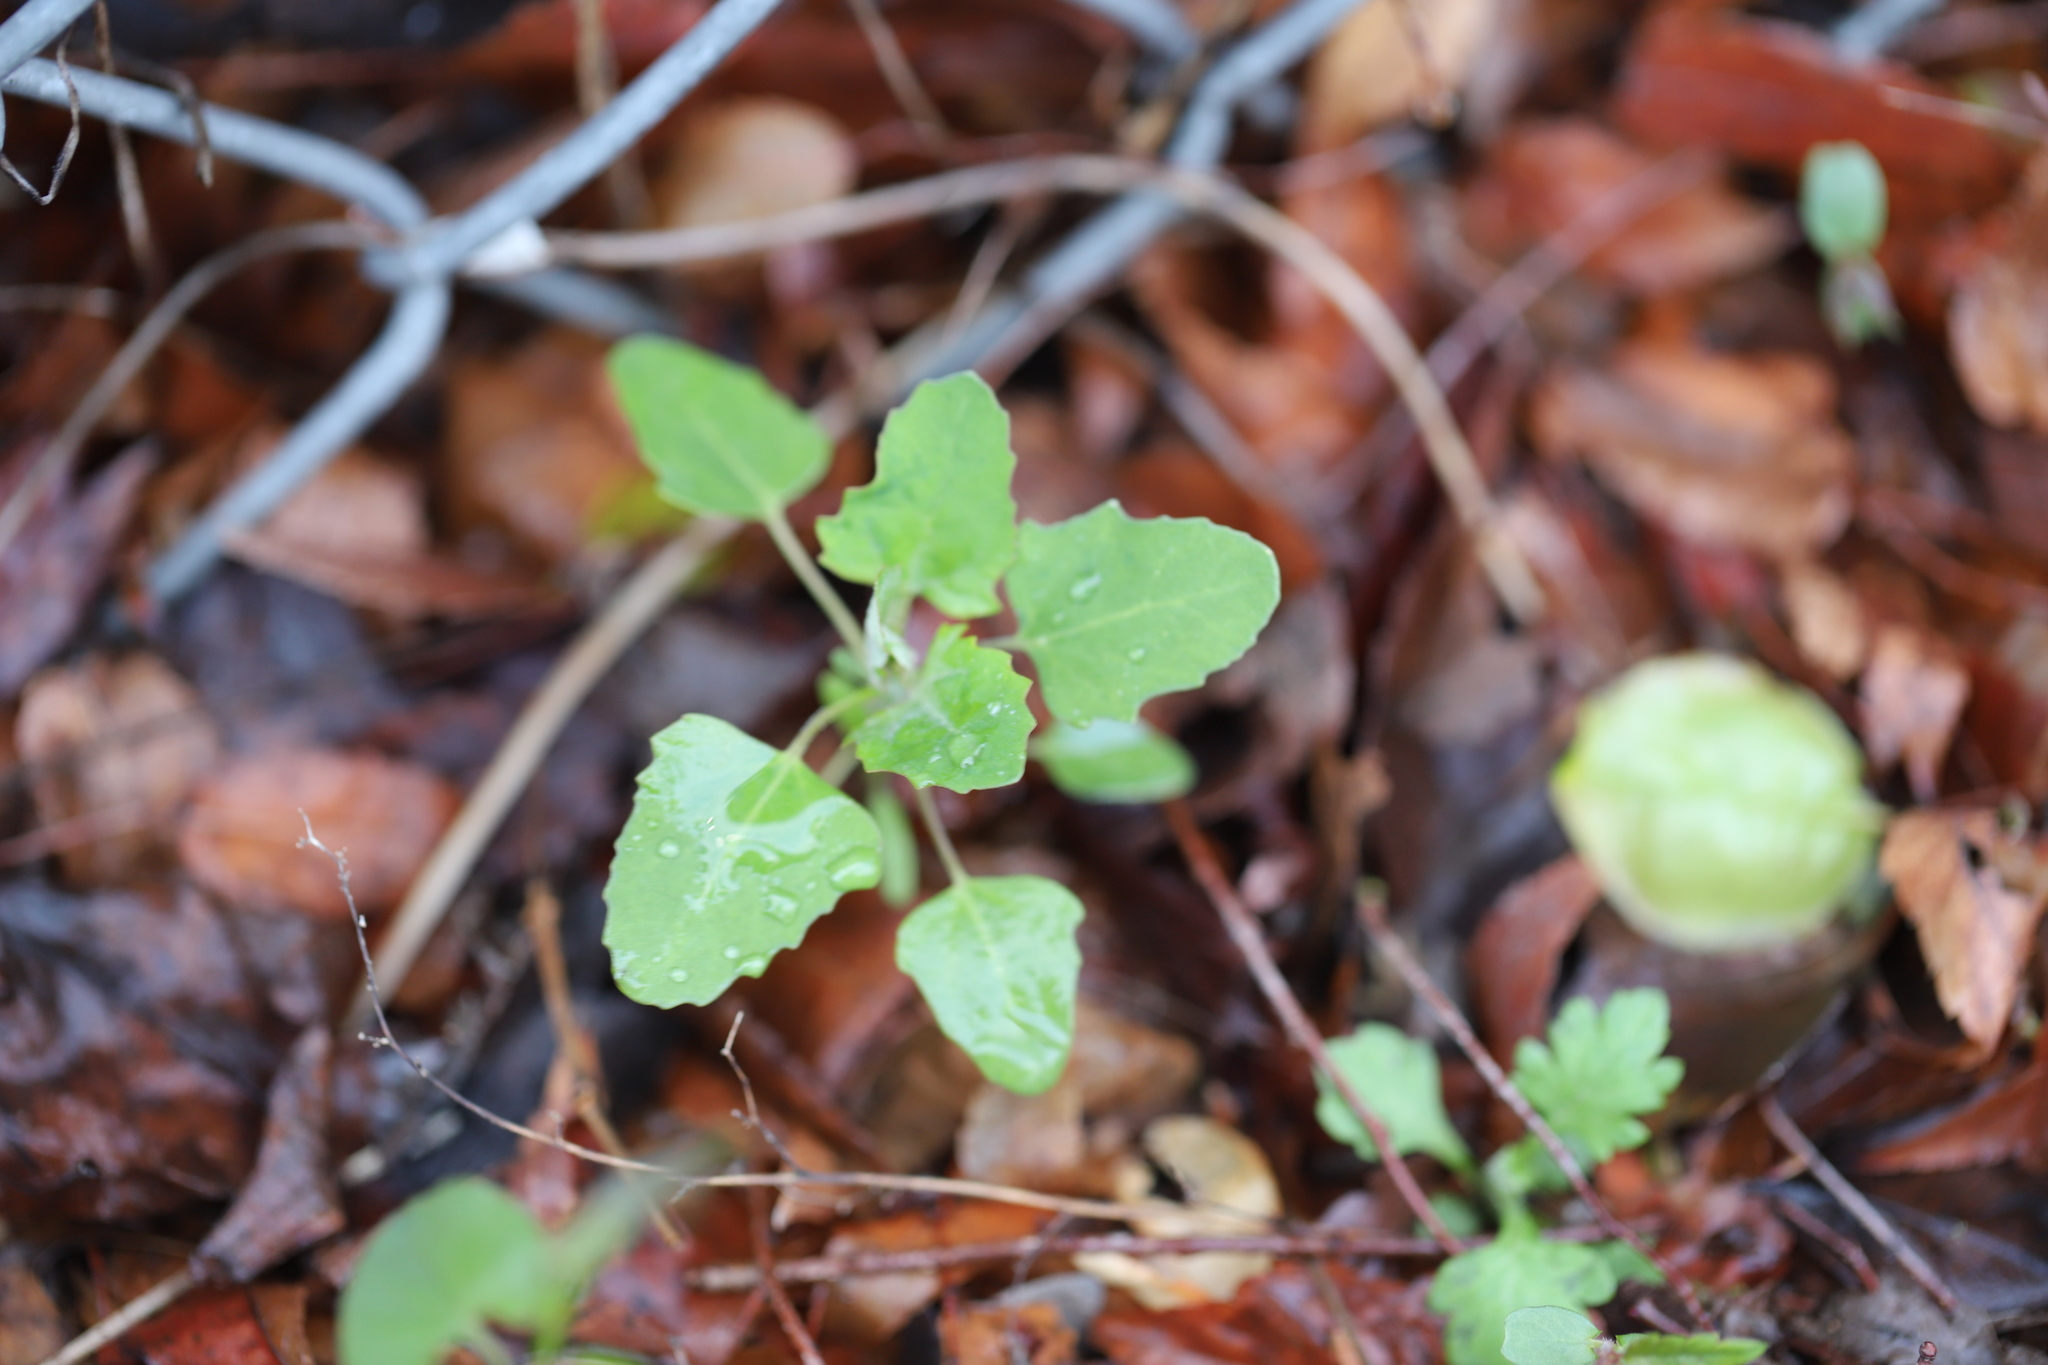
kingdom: Plantae
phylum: Tracheophyta
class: Magnoliopsida
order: Caryophyllales
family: Amaranthaceae
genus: Chenopodium
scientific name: Chenopodium album
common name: Fat-hen
